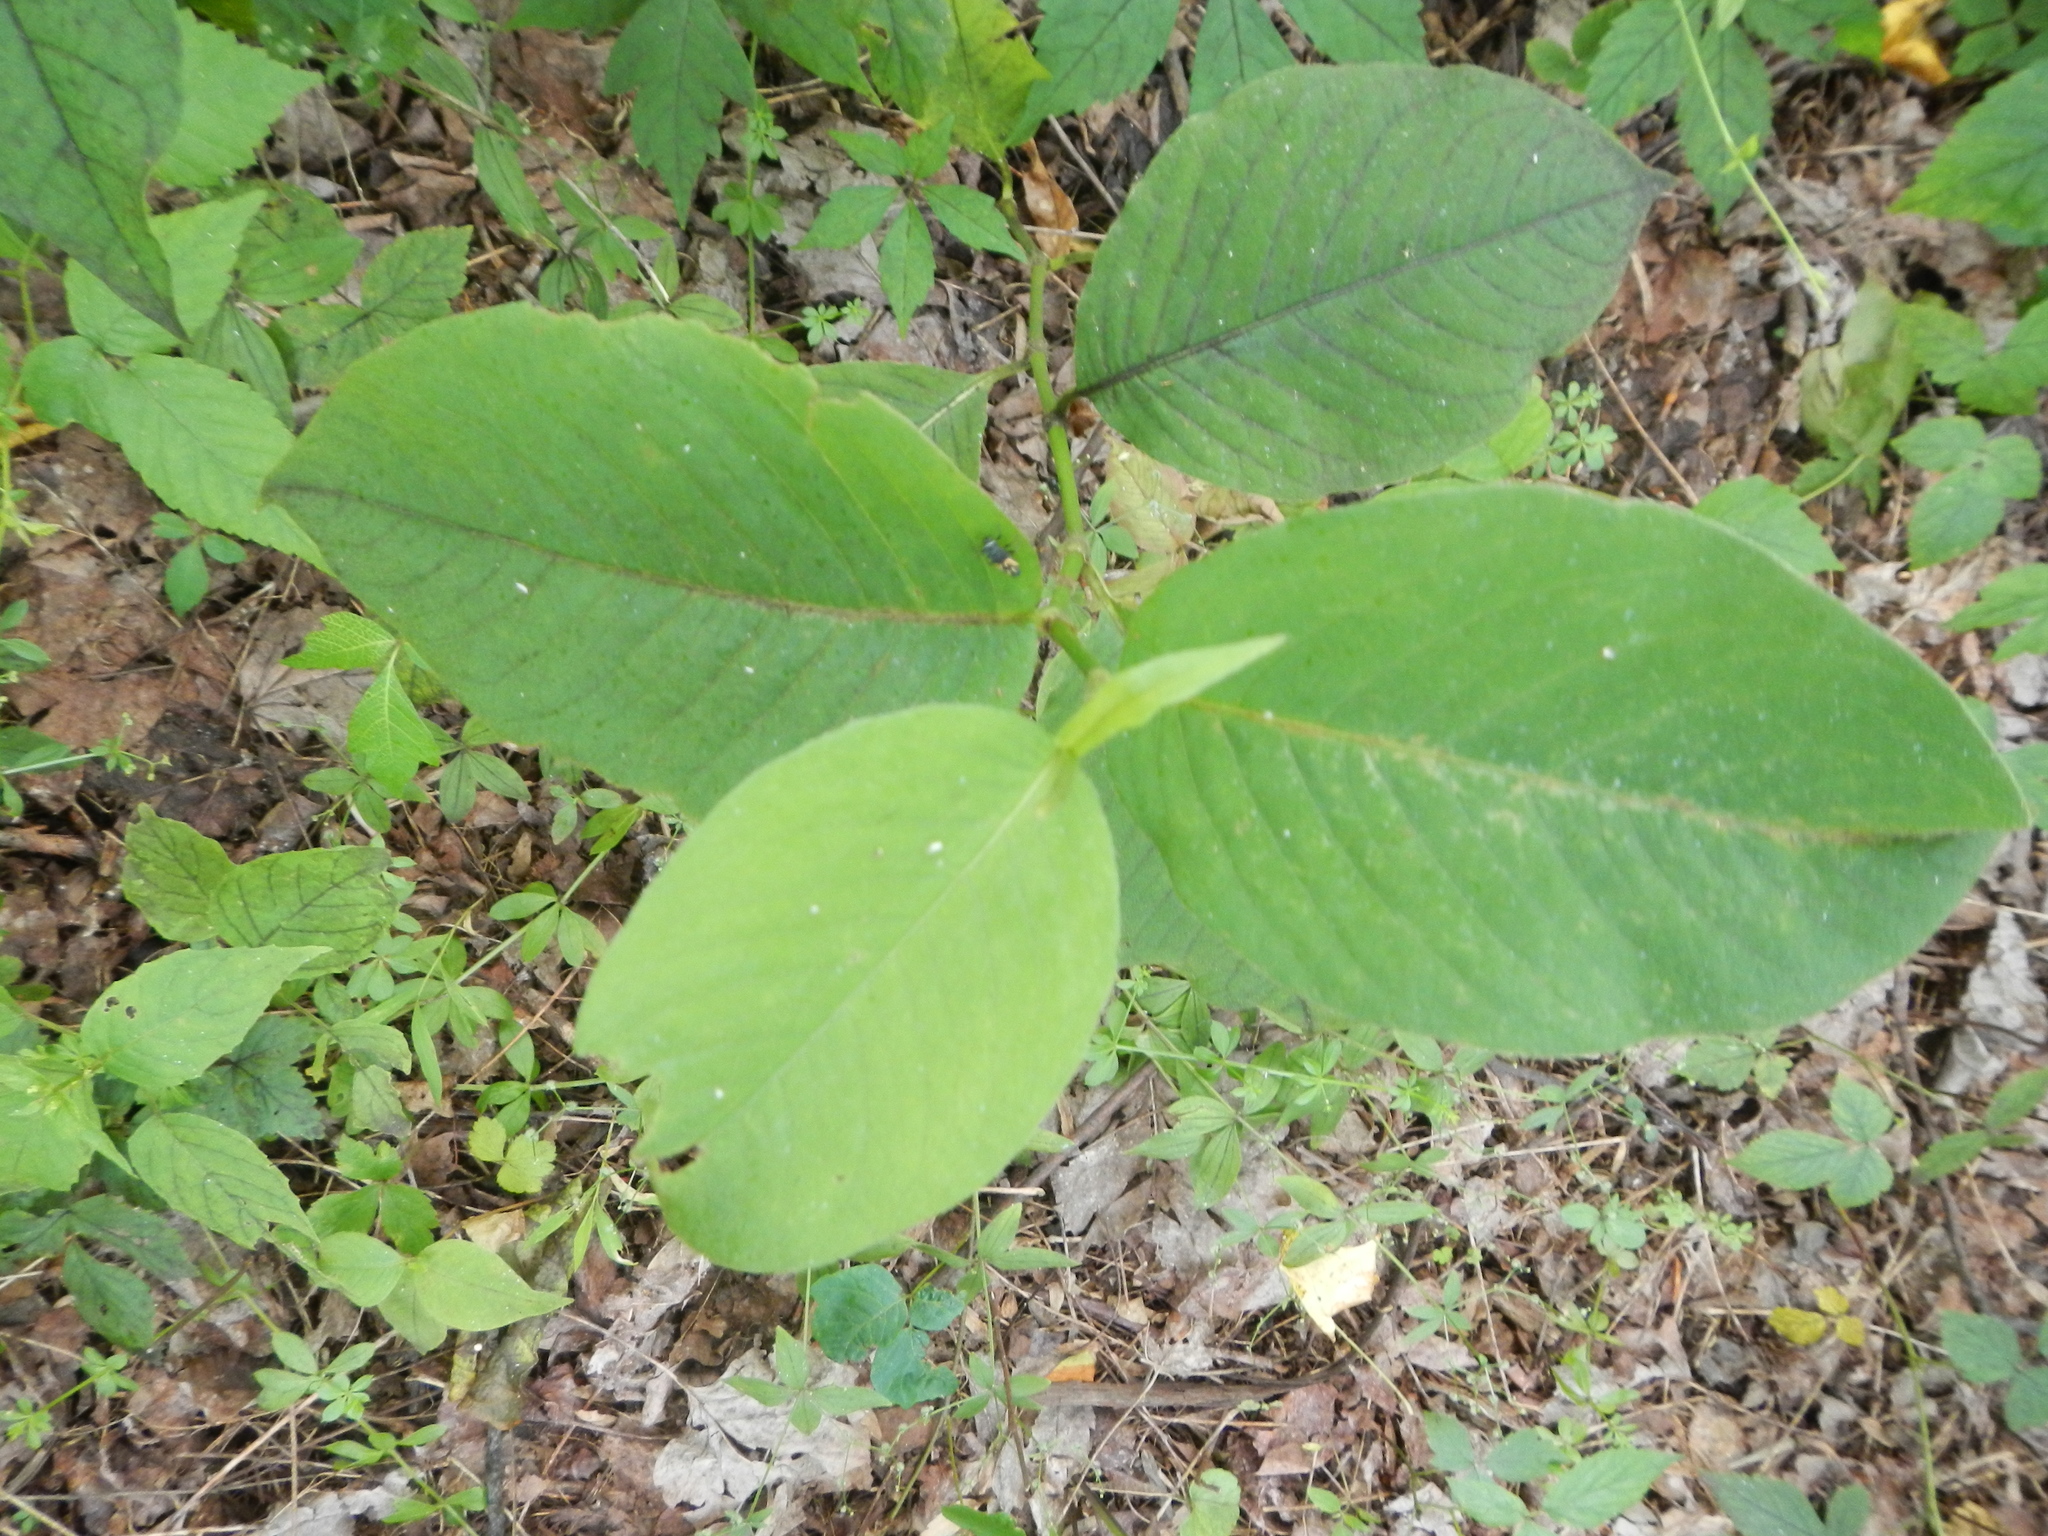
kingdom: Plantae
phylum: Tracheophyta
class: Magnoliopsida
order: Caryophyllales
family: Polygonaceae
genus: Persicaria
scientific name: Persicaria virginiana
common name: Jumpseed
